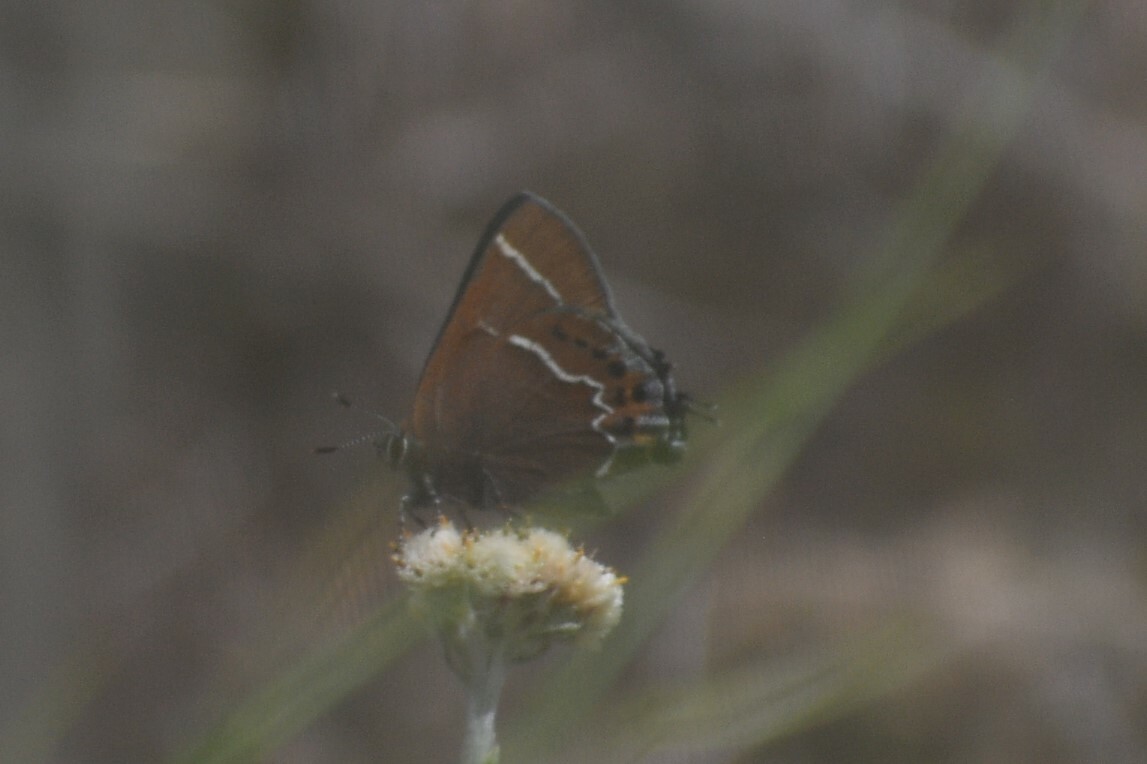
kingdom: Animalia
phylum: Arthropoda
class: Insecta
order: Lepidoptera
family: Lycaenidae
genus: Mitoura
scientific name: Mitoura spinetorum
